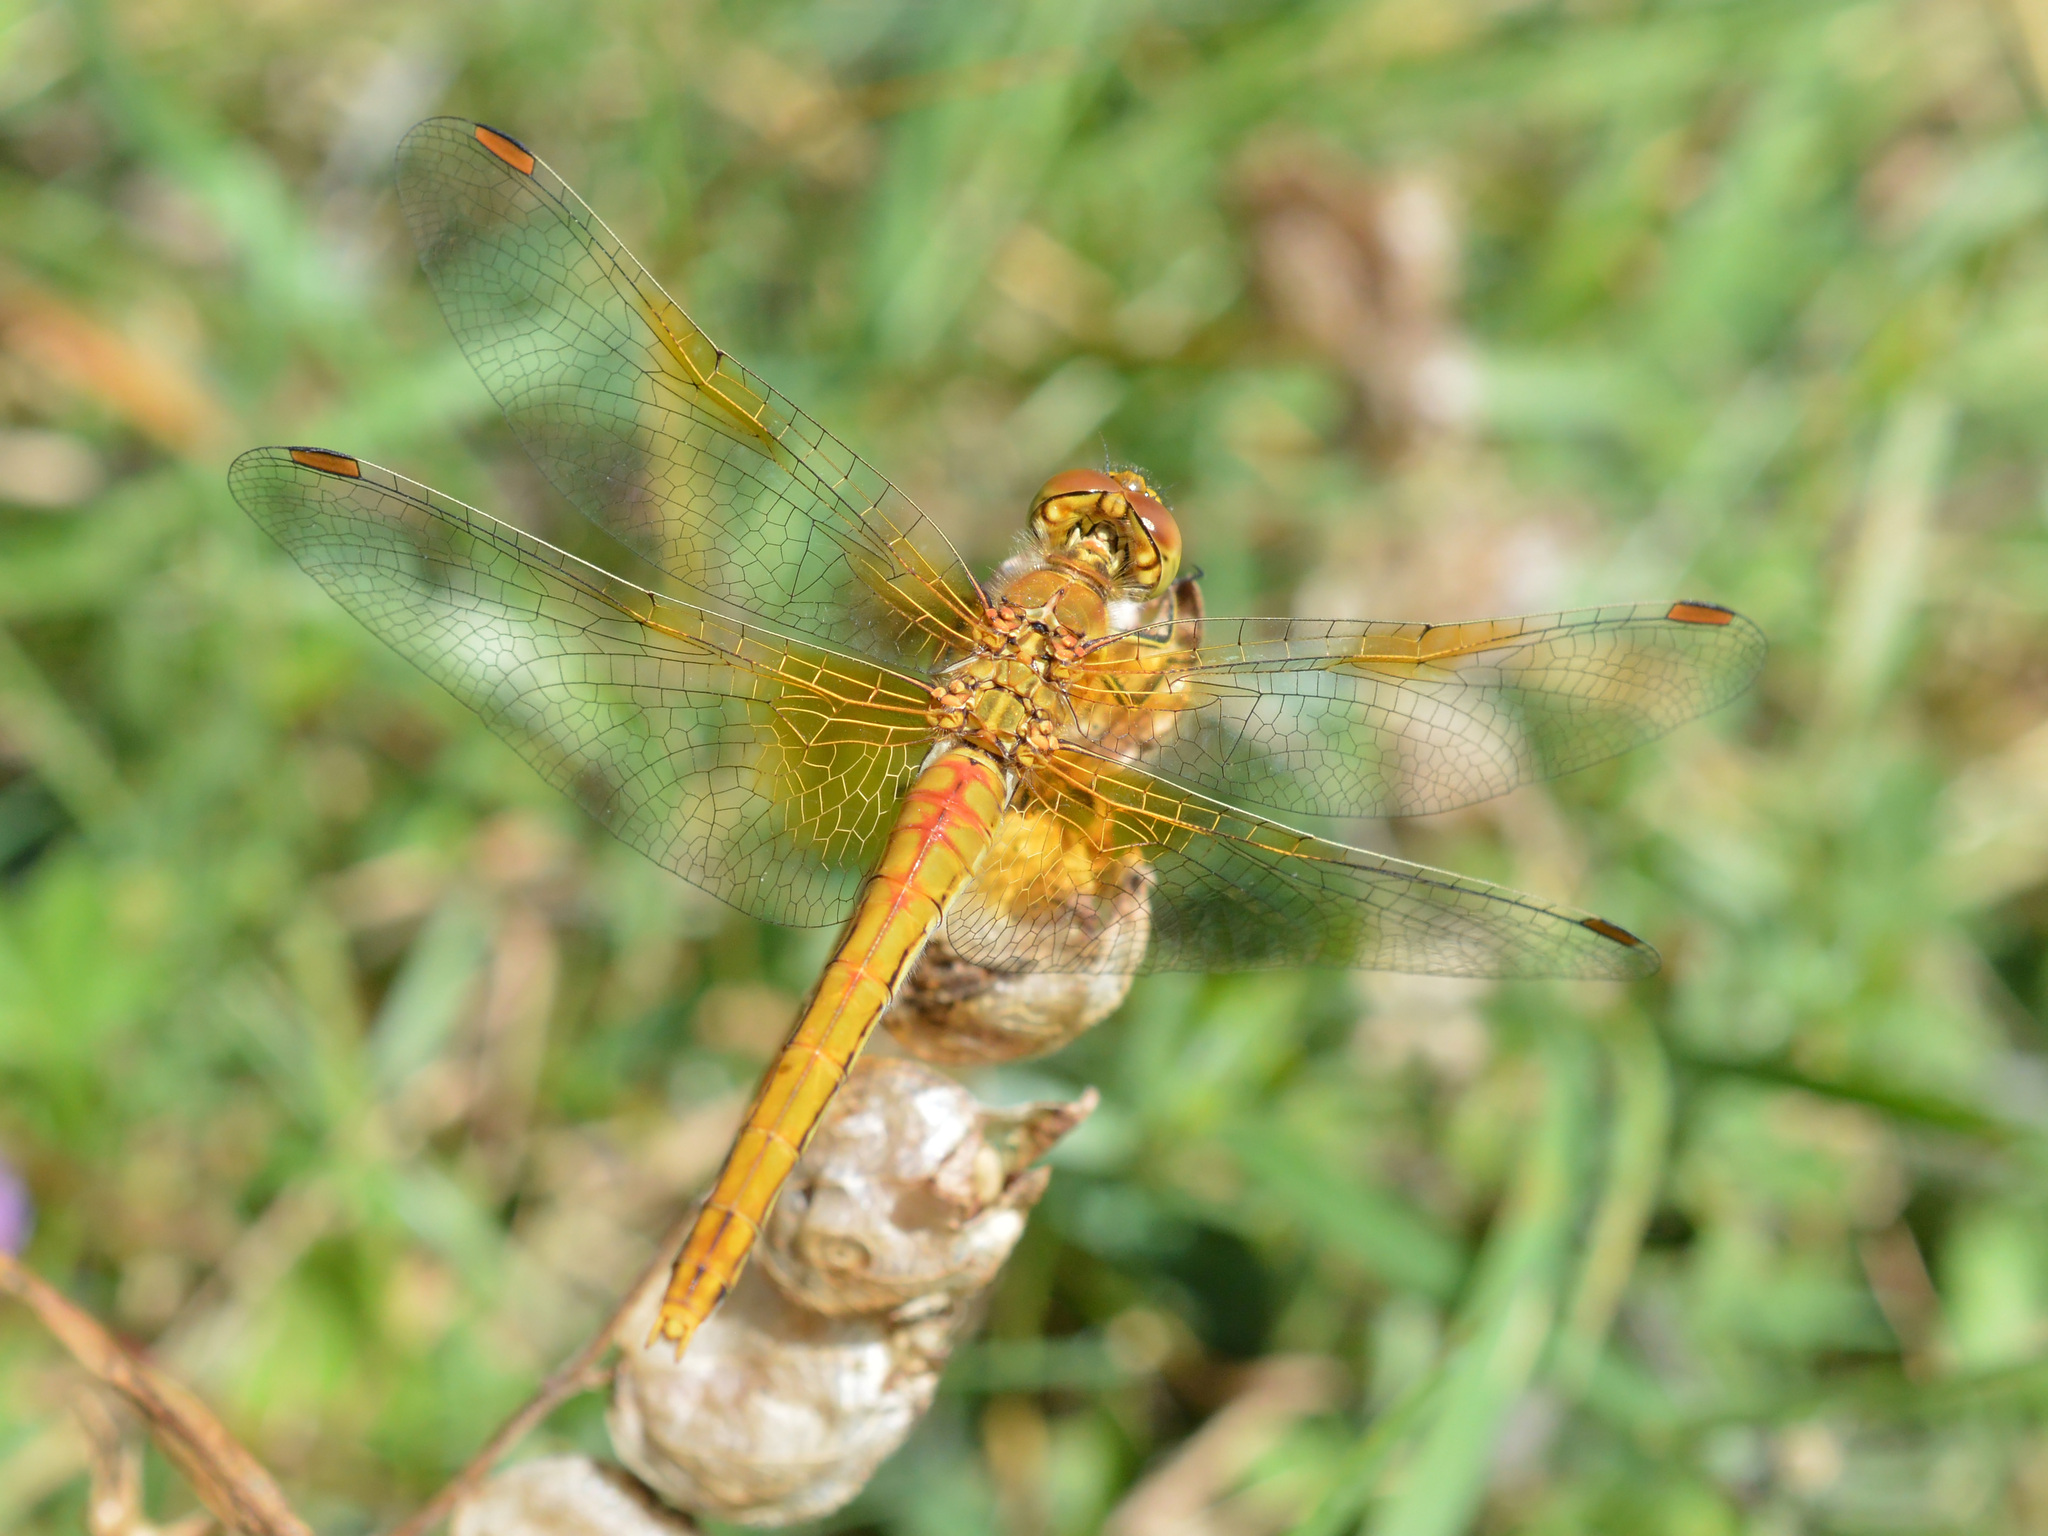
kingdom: Animalia
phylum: Arthropoda
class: Insecta
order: Odonata
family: Libellulidae
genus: Sympetrum
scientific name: Sympetrum flaveolum
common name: Yellow-winged darter
